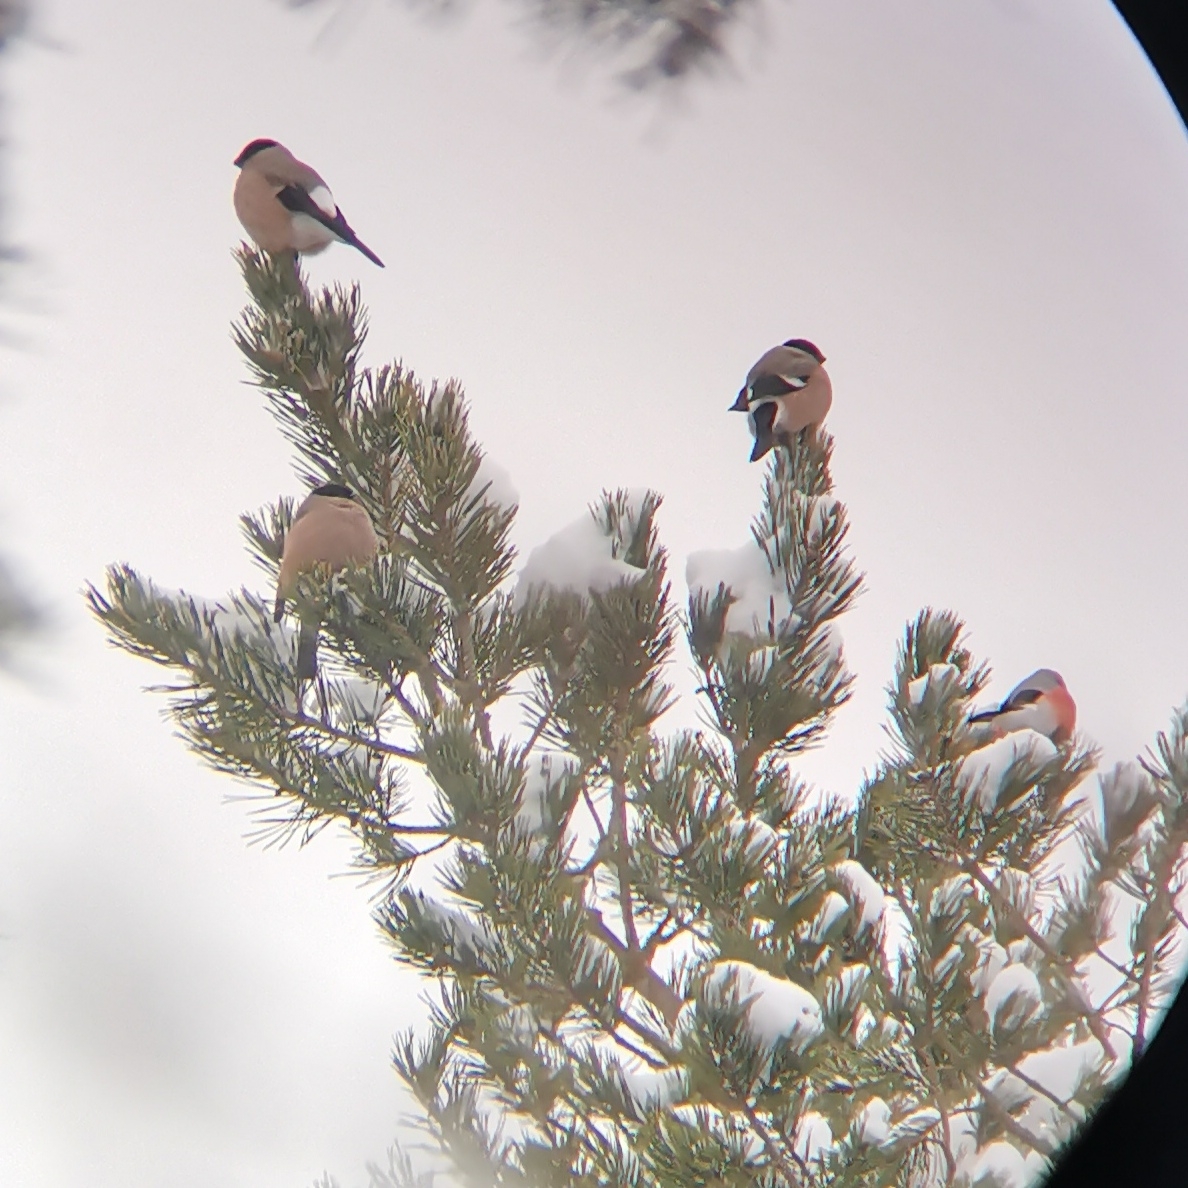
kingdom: Animalia
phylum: Chordata
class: Aves
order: Passeriformes
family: Fringillidae
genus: Pyrrhula
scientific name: Pyrrhula pyrrhula
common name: Eurasian bullfinch
